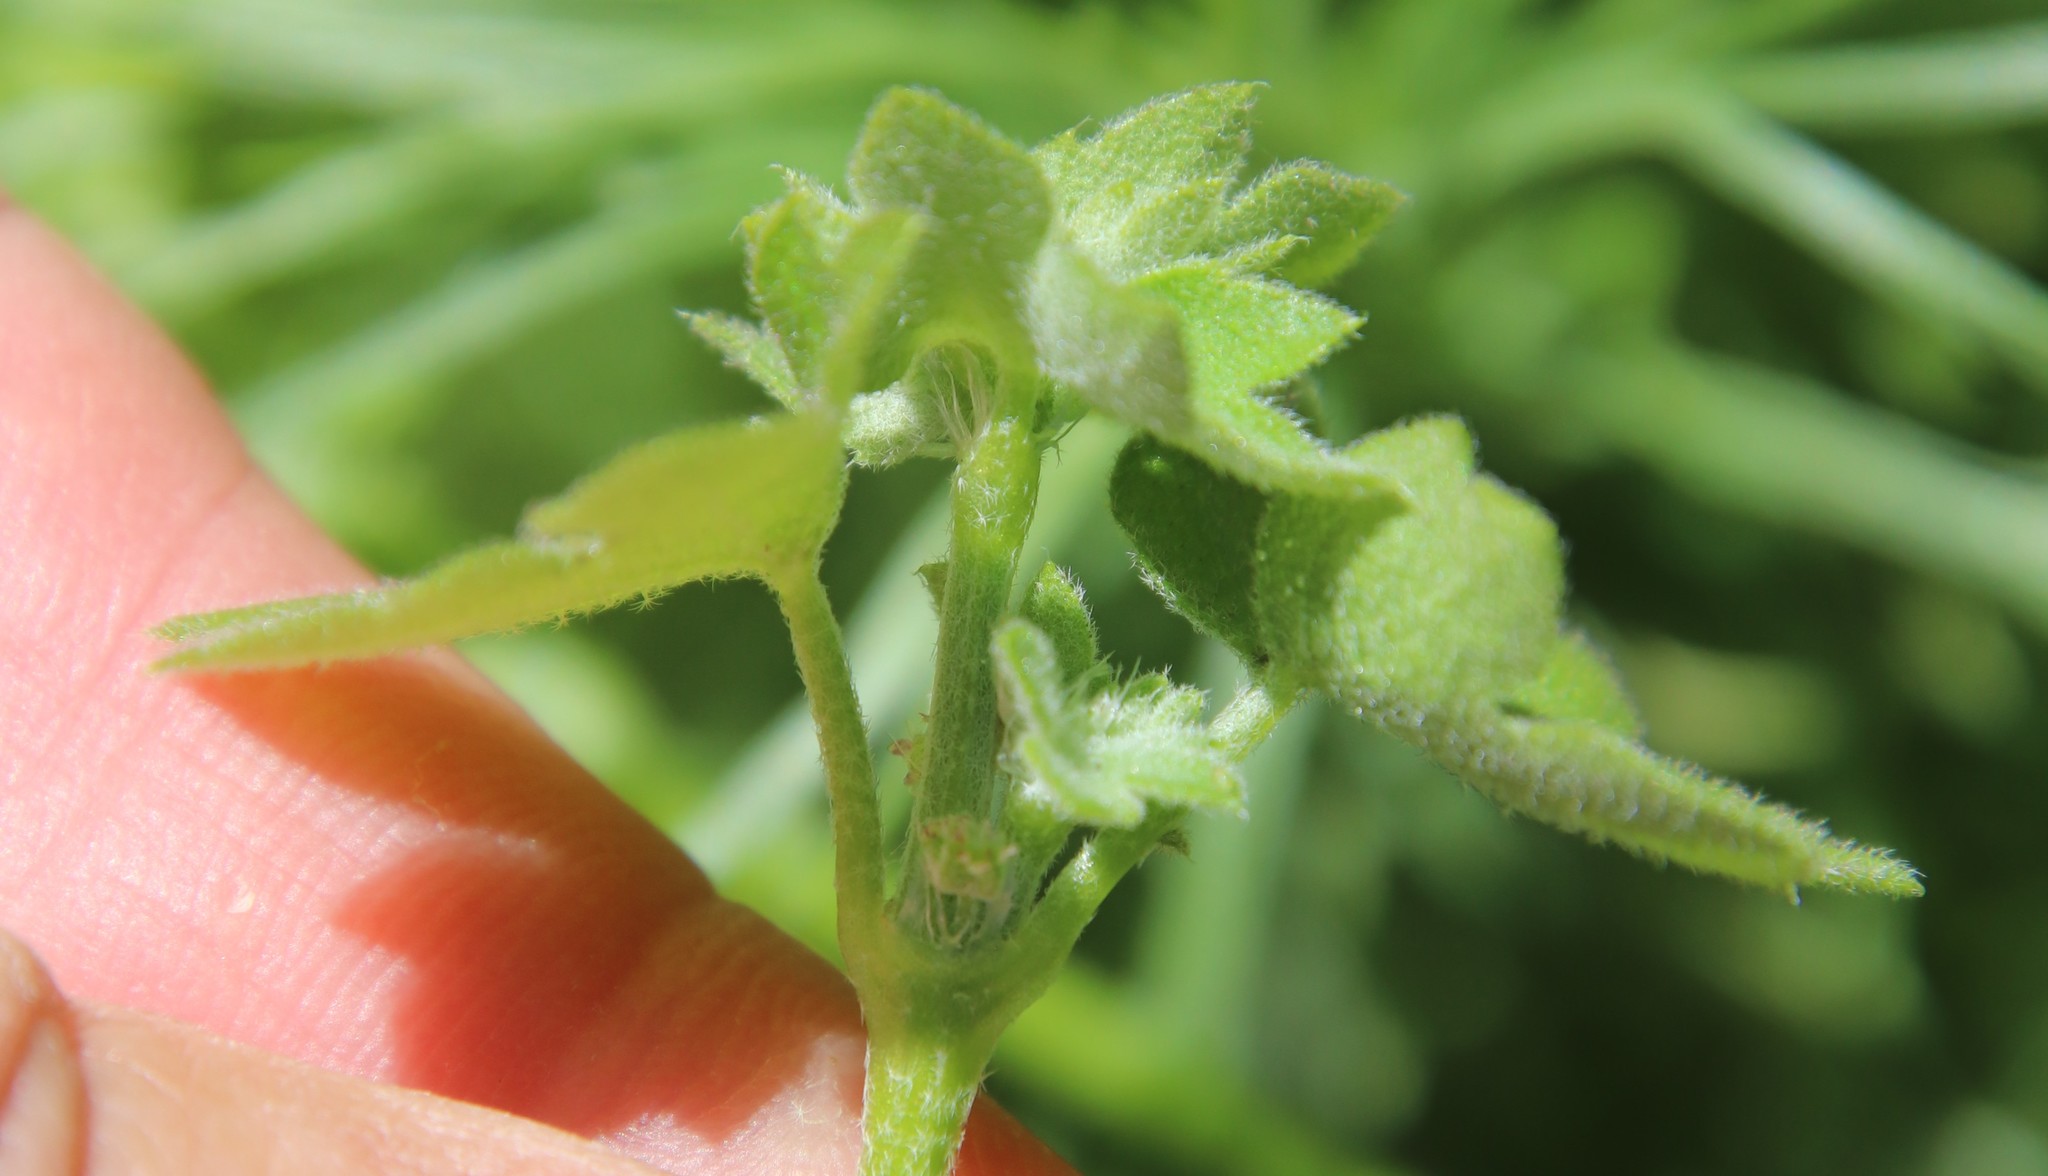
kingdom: Plantae
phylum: Tracheophyta
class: Magnoliopsida
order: Apiales
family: Apiaceae
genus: Bowlesia
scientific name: Bowlesia incana
